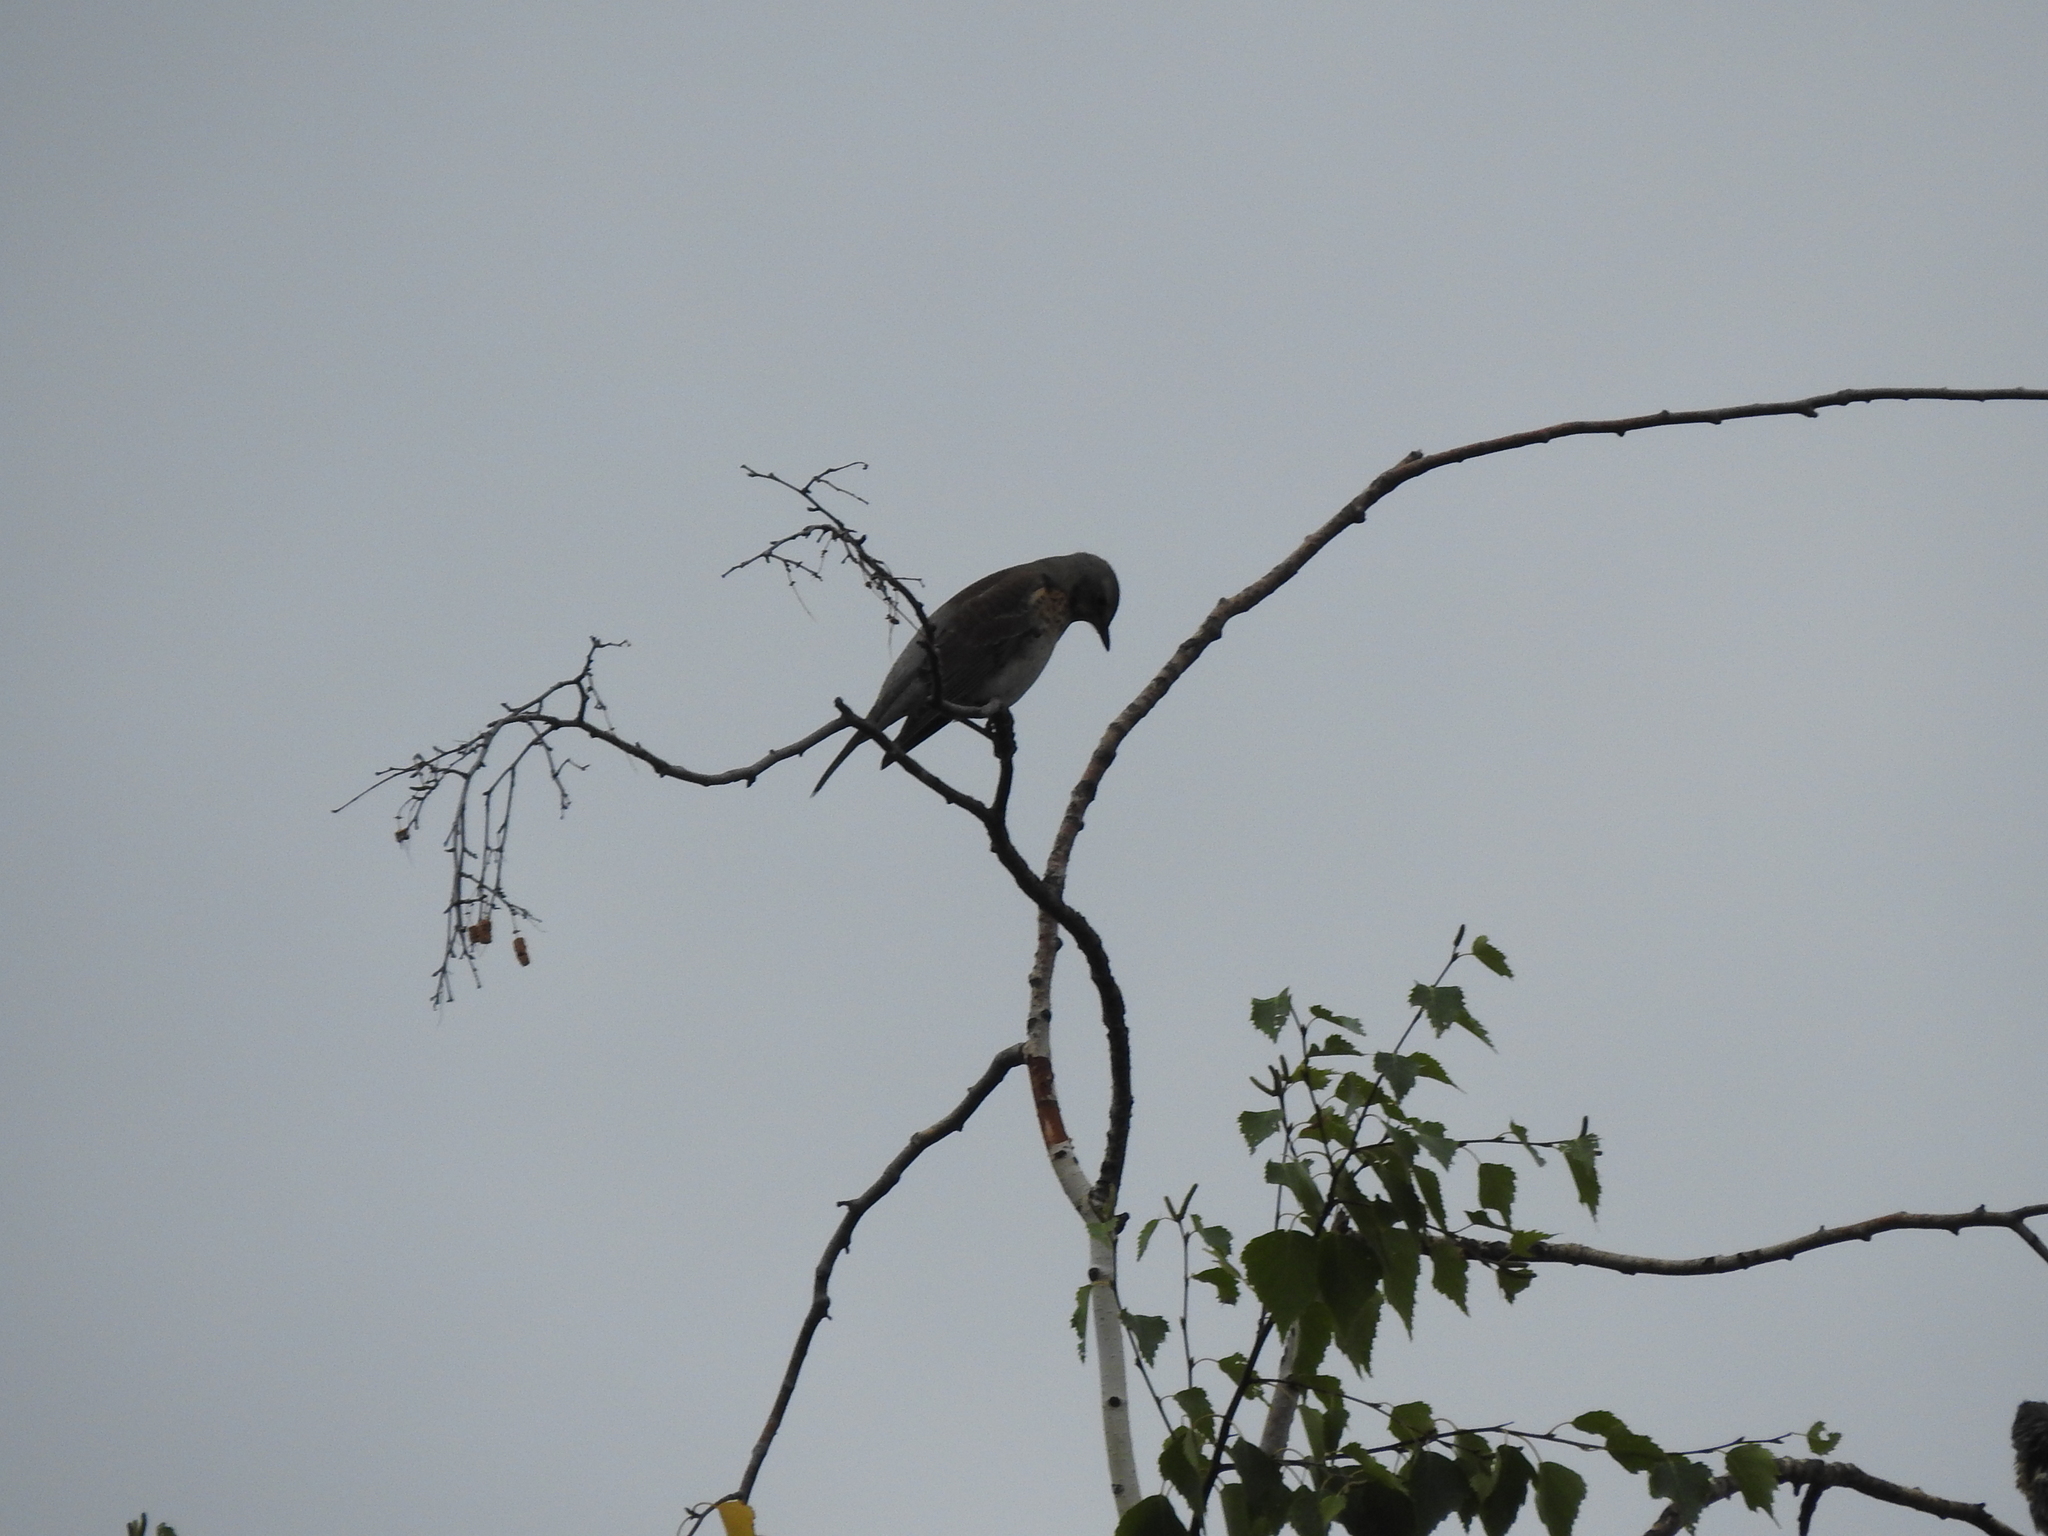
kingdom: Animalia
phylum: Chordata
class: Aves
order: Passeriformes
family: Turdidae
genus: Turdus
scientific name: Turdus pilaris
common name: Fieldfare
